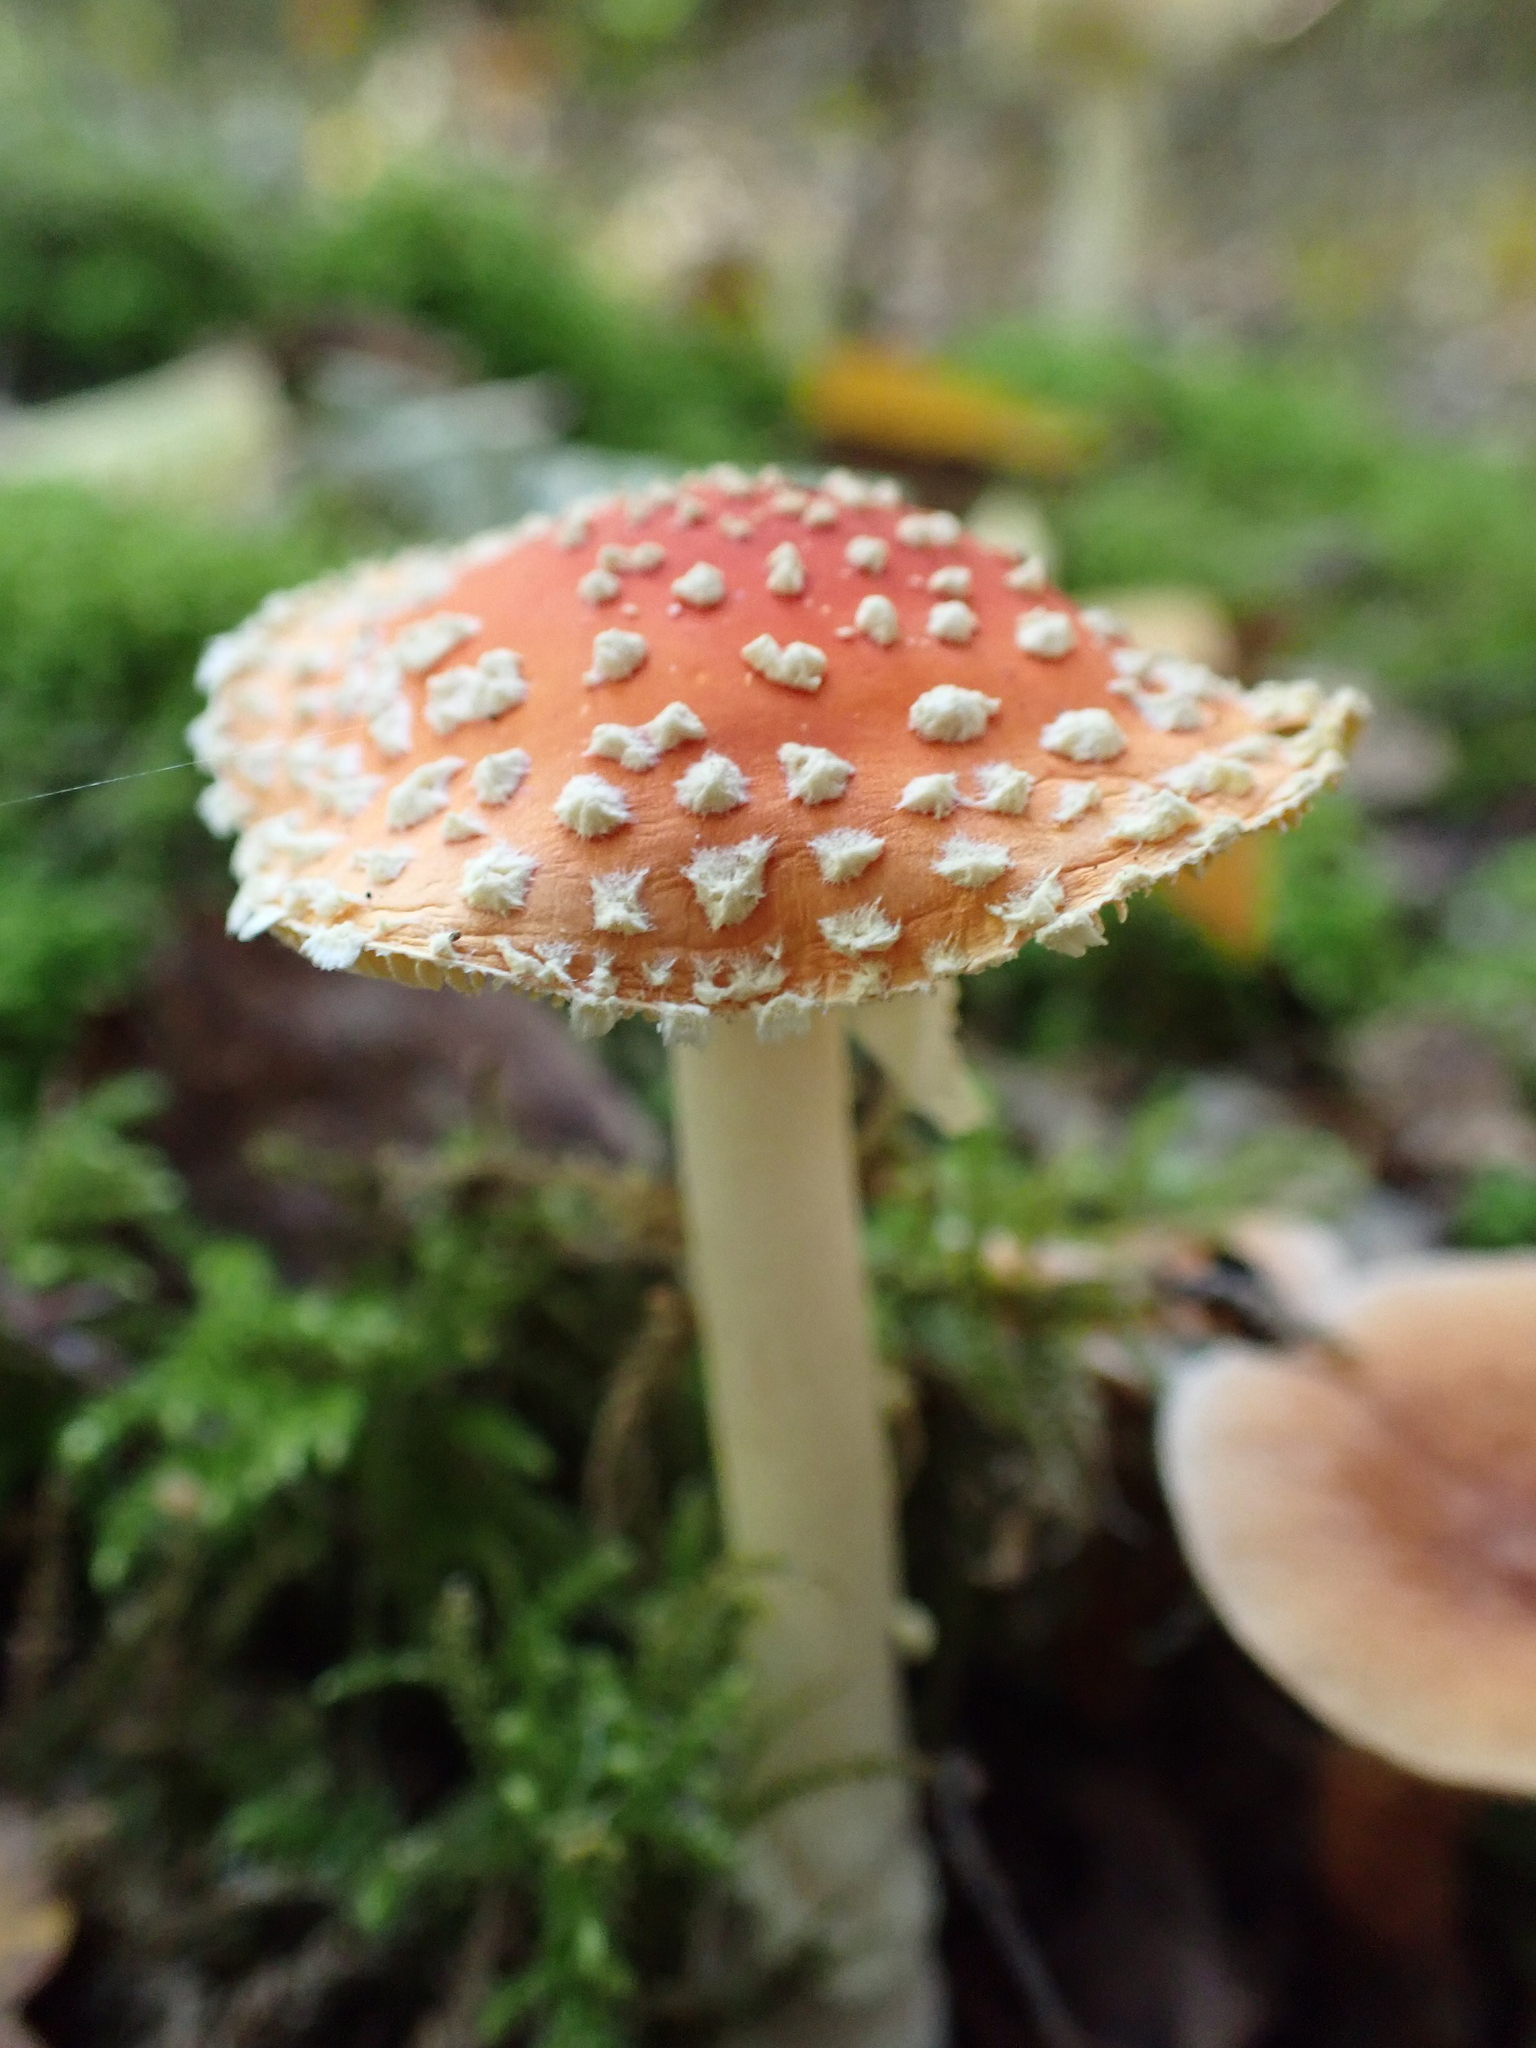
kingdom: Fungi
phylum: Basidiomycota
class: Agaricomycetes
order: Agaricales
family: Amanitaceae
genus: Amanita
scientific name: Amanita muscaria
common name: Fly agaric
